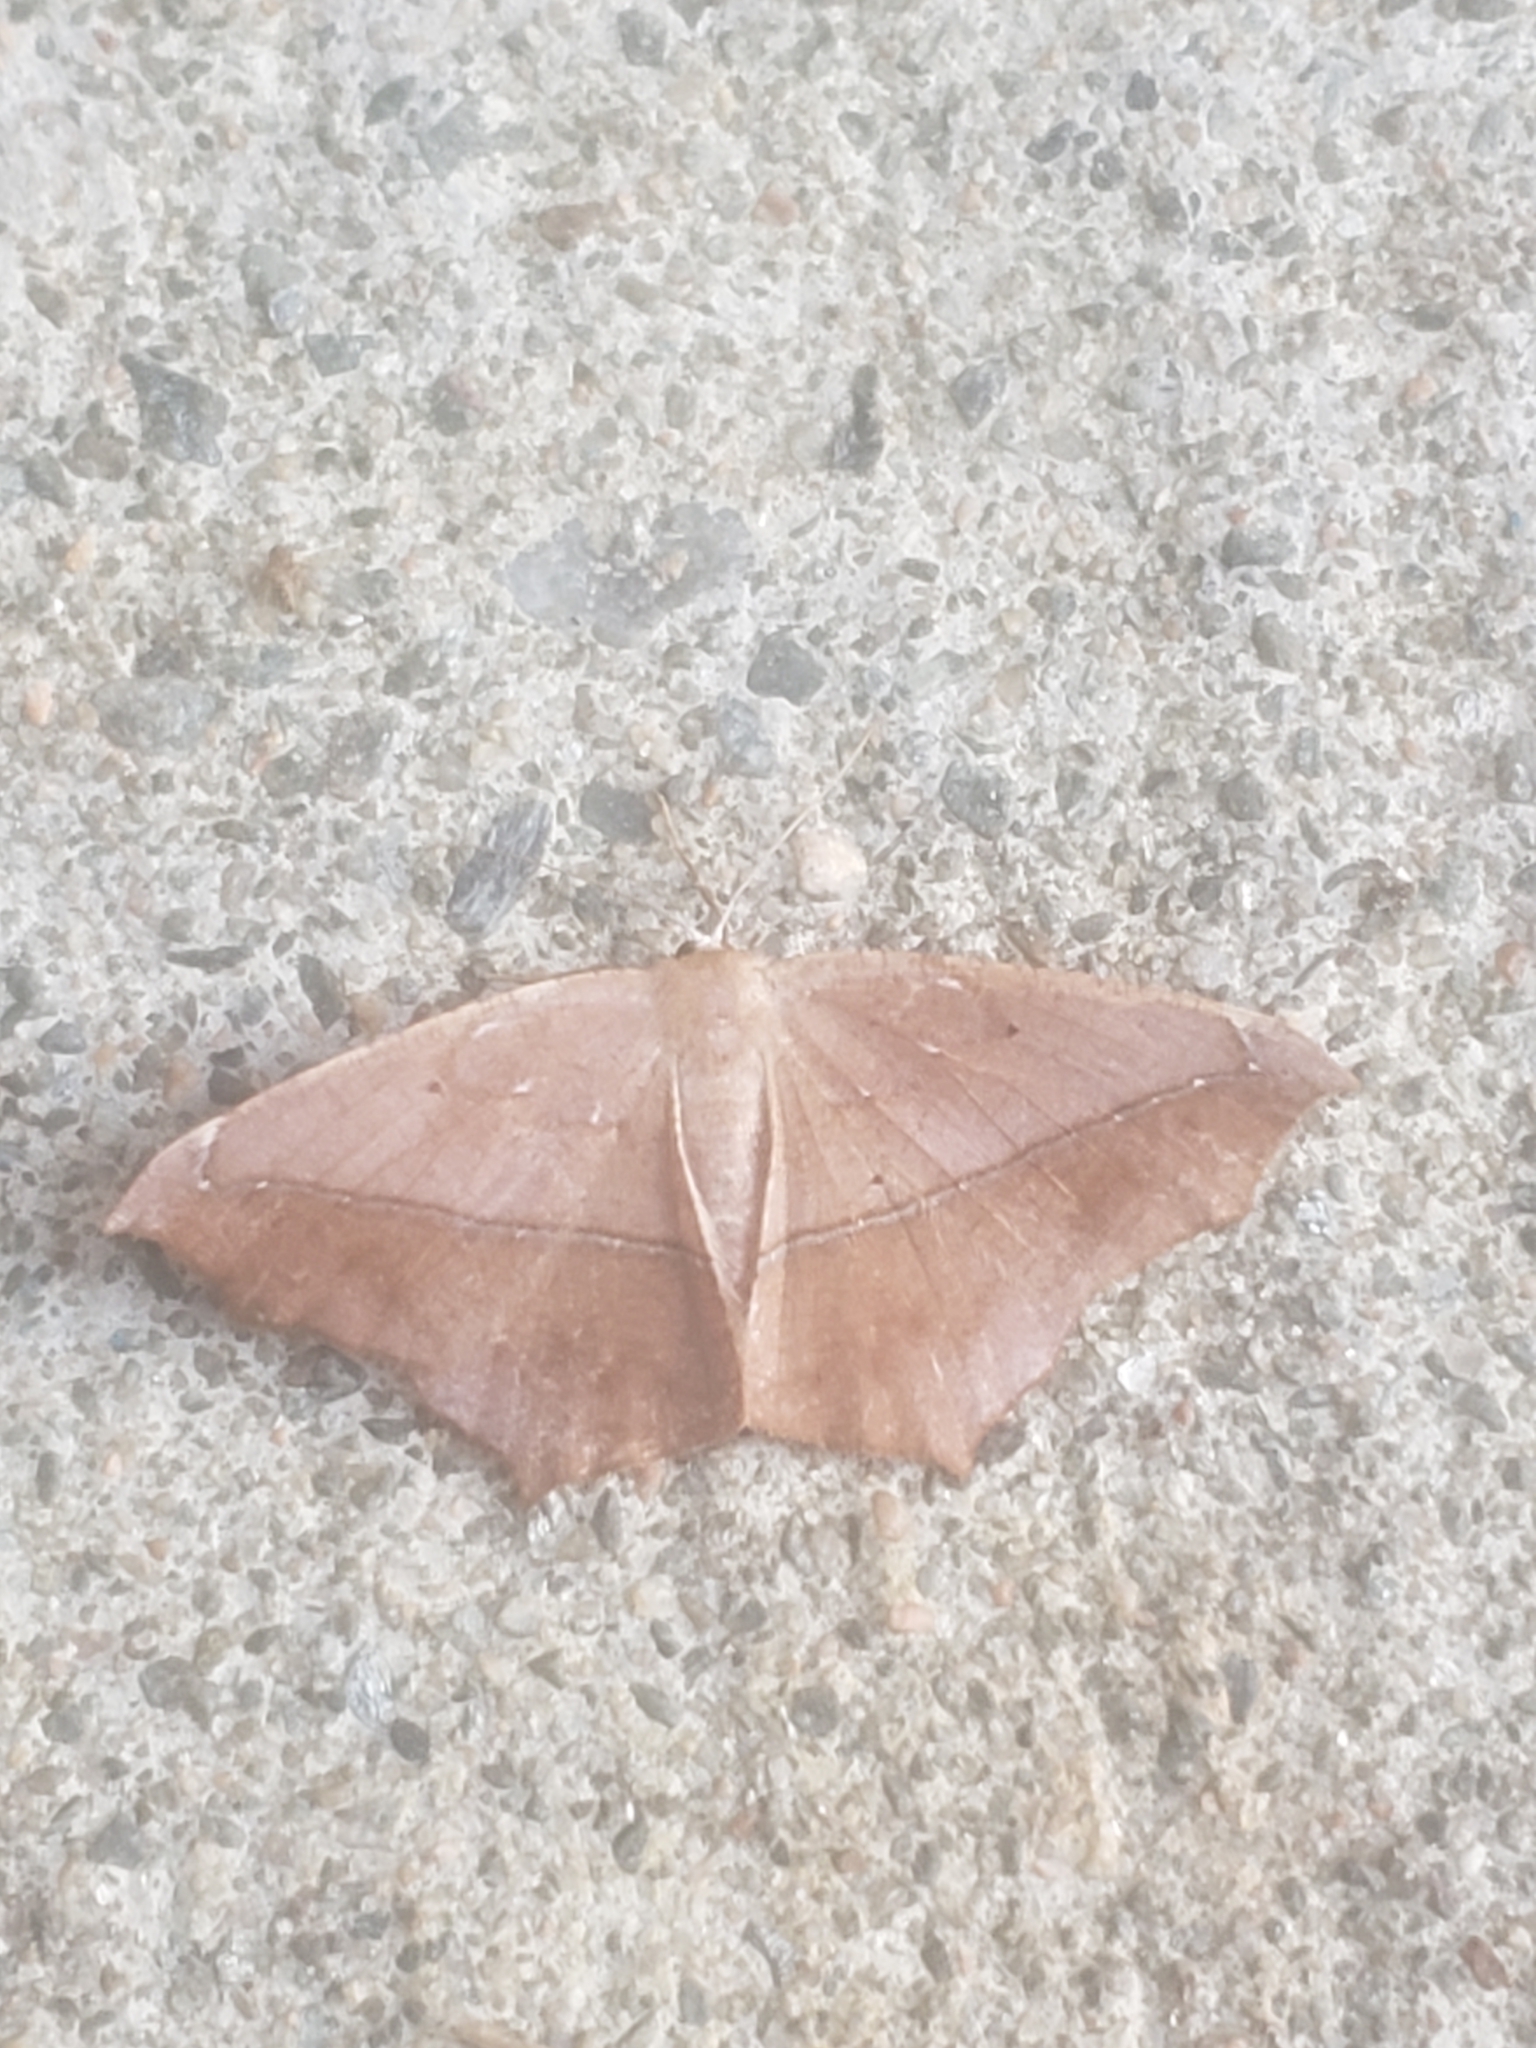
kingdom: Animalia
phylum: Arthropoda
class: Insecta
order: Lepidoptera
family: Geometridae
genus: Prochoerodes
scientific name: Prochoerodes lineola
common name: Large maple spanworm
